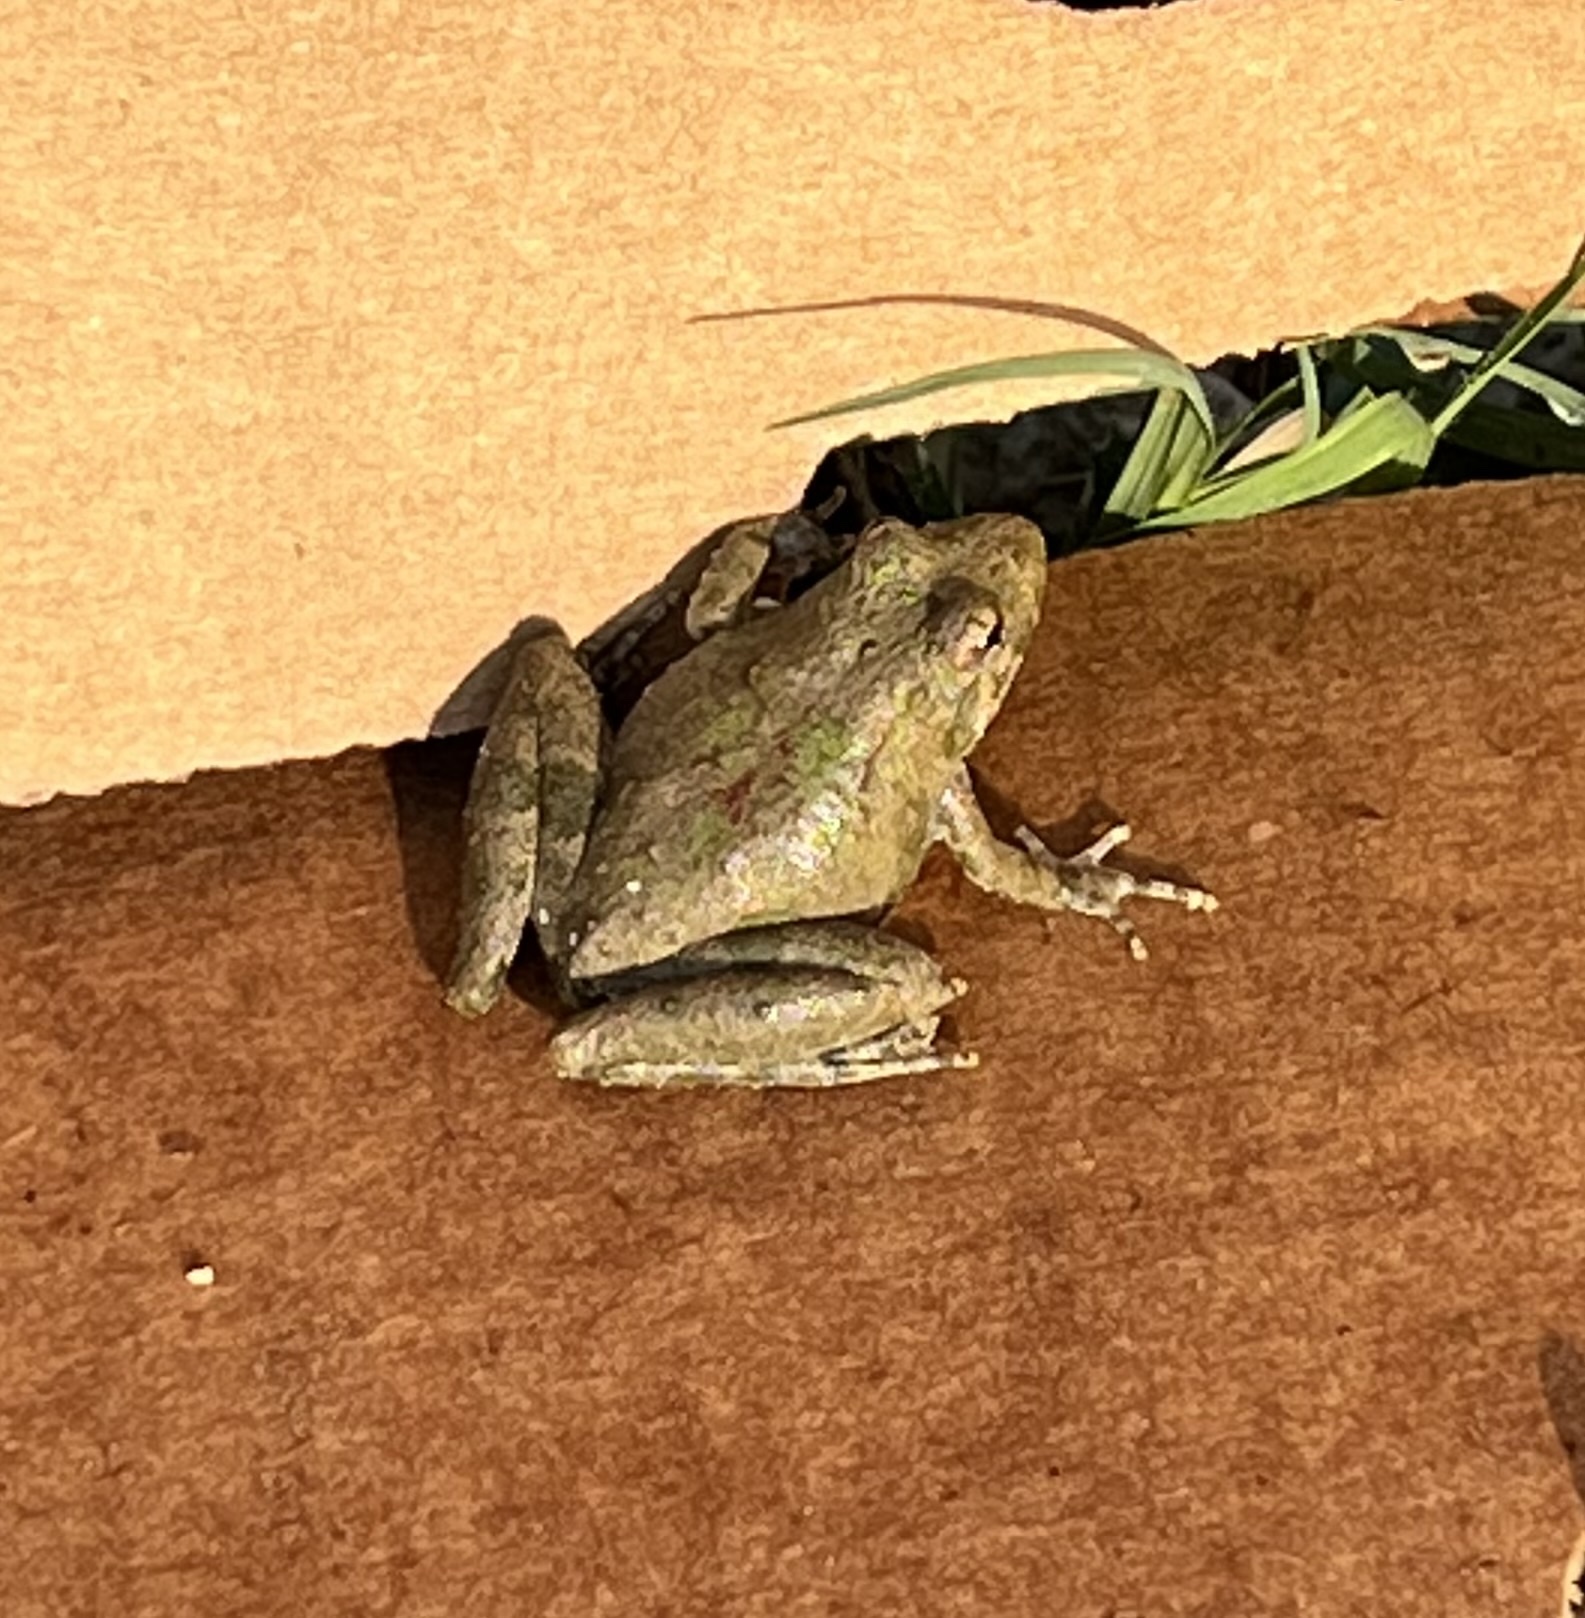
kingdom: Animalia
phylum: Chordata
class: Amphibia
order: Anura
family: Hylidae
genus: Acris
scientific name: Acris blanchardi
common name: Blanchard's cricket frog
